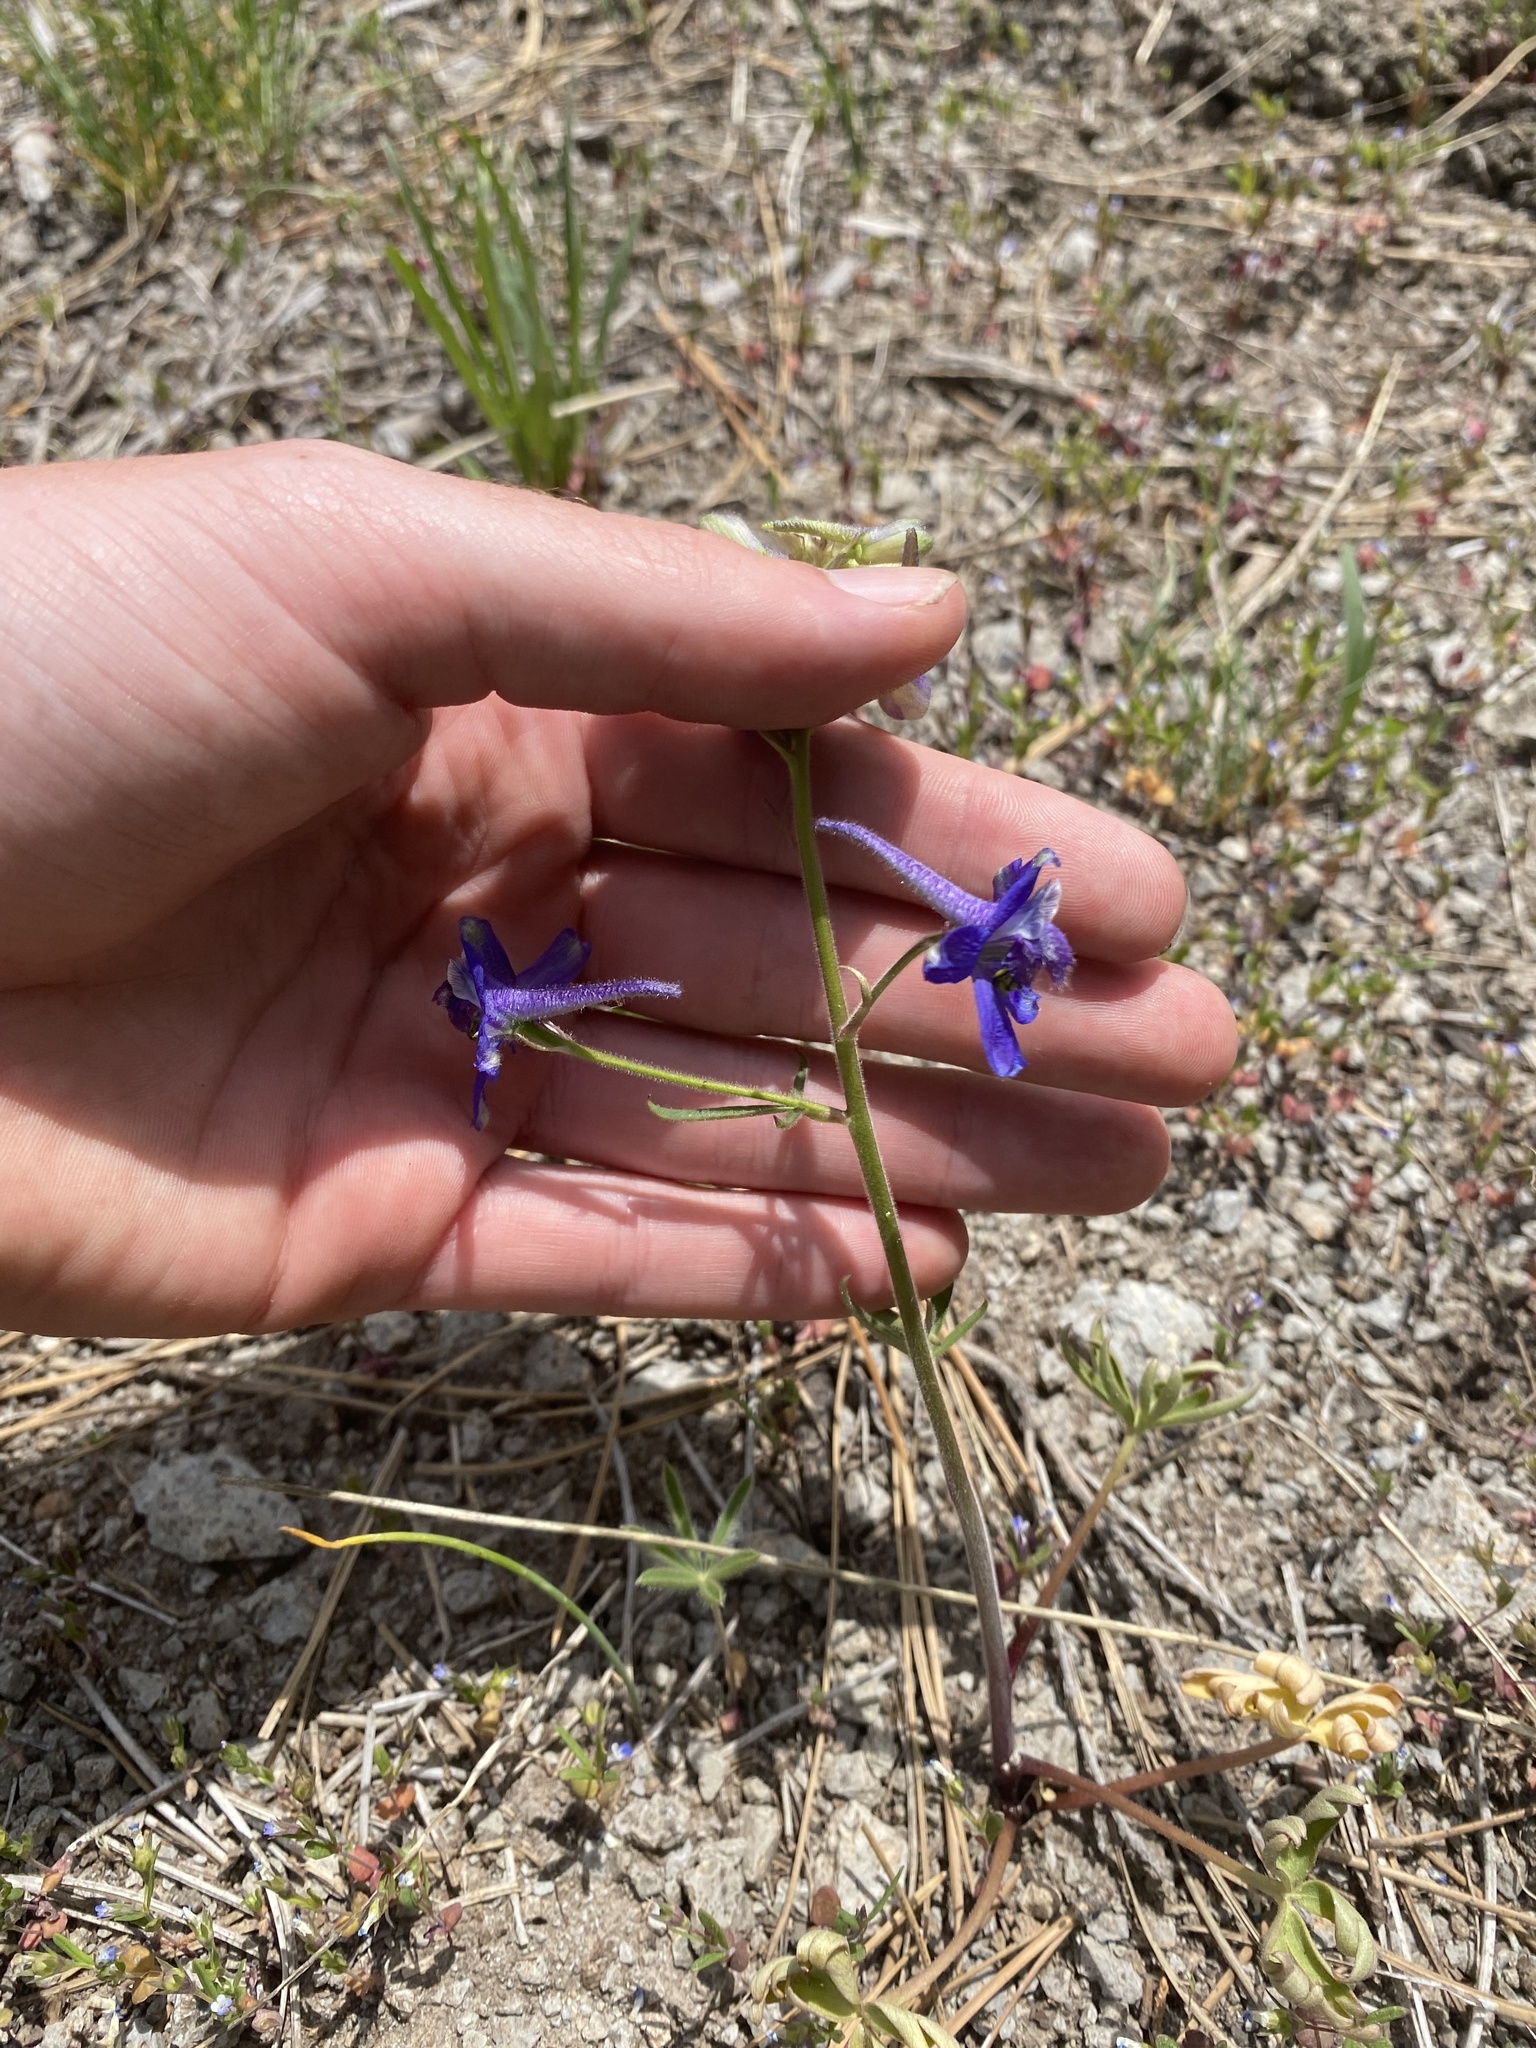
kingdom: Plantae
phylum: Tracheophyta
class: Magnoliopsida
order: Ranunculales
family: Ranunculaceae
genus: Delphinium
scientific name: Delphinium nuttallianum
